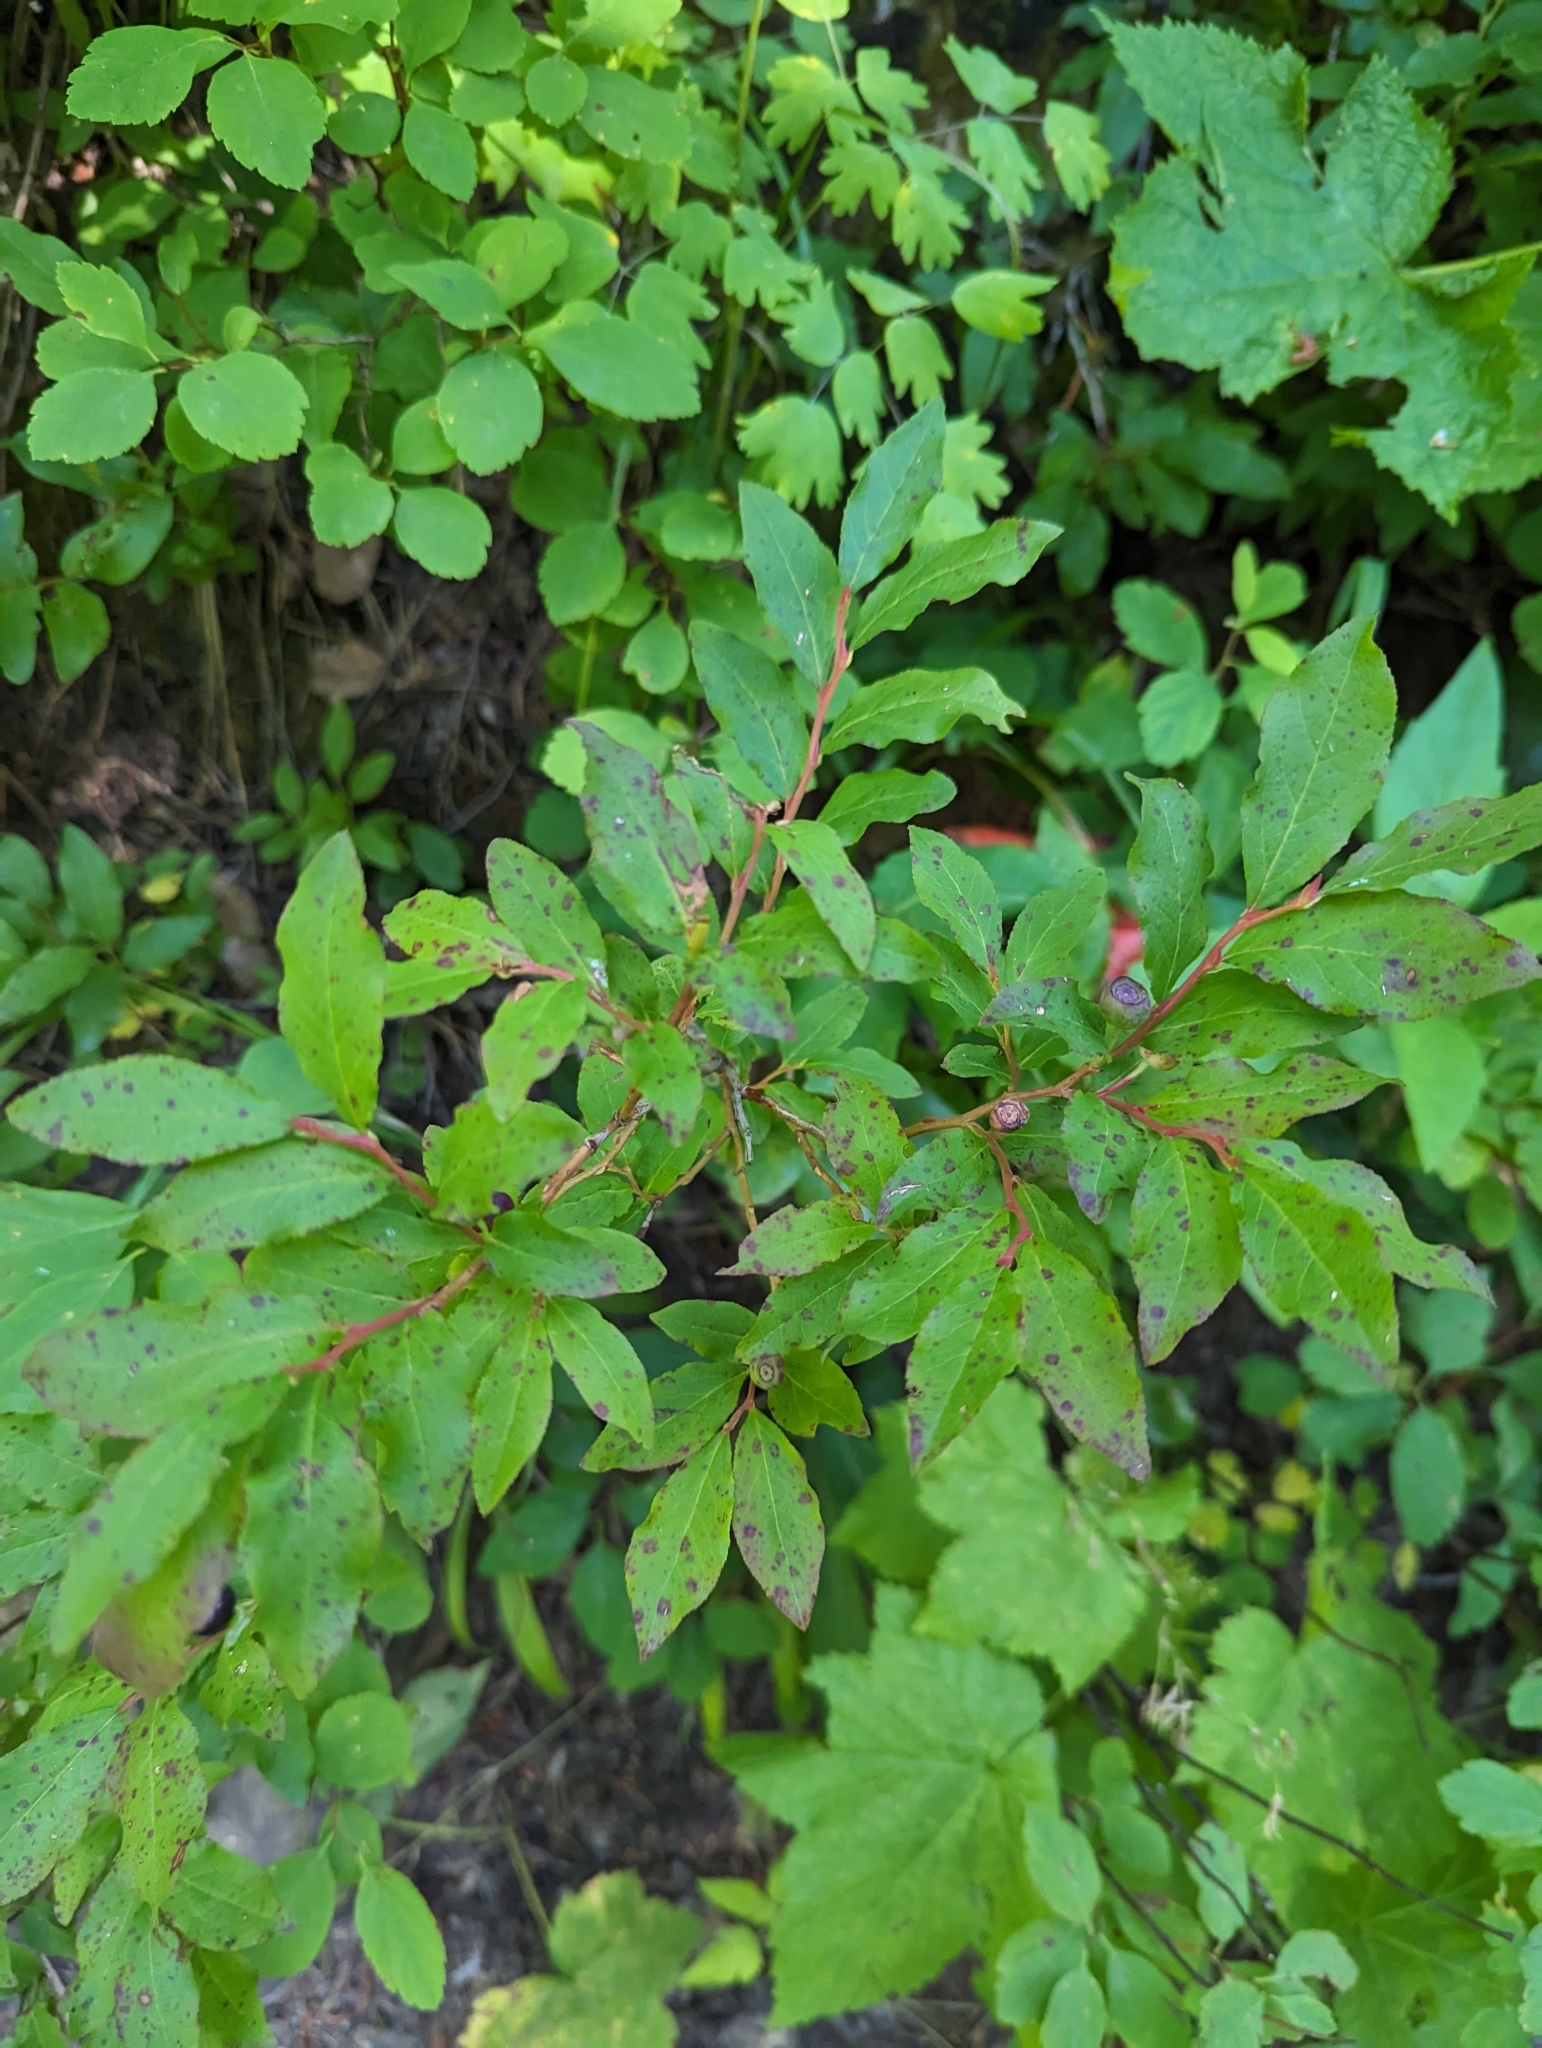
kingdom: Plantae
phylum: Tracheophyta
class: Magnoliopsida
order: Ericales
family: Ericaceae
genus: Vaccinium
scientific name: Vaccinium membranaceum
